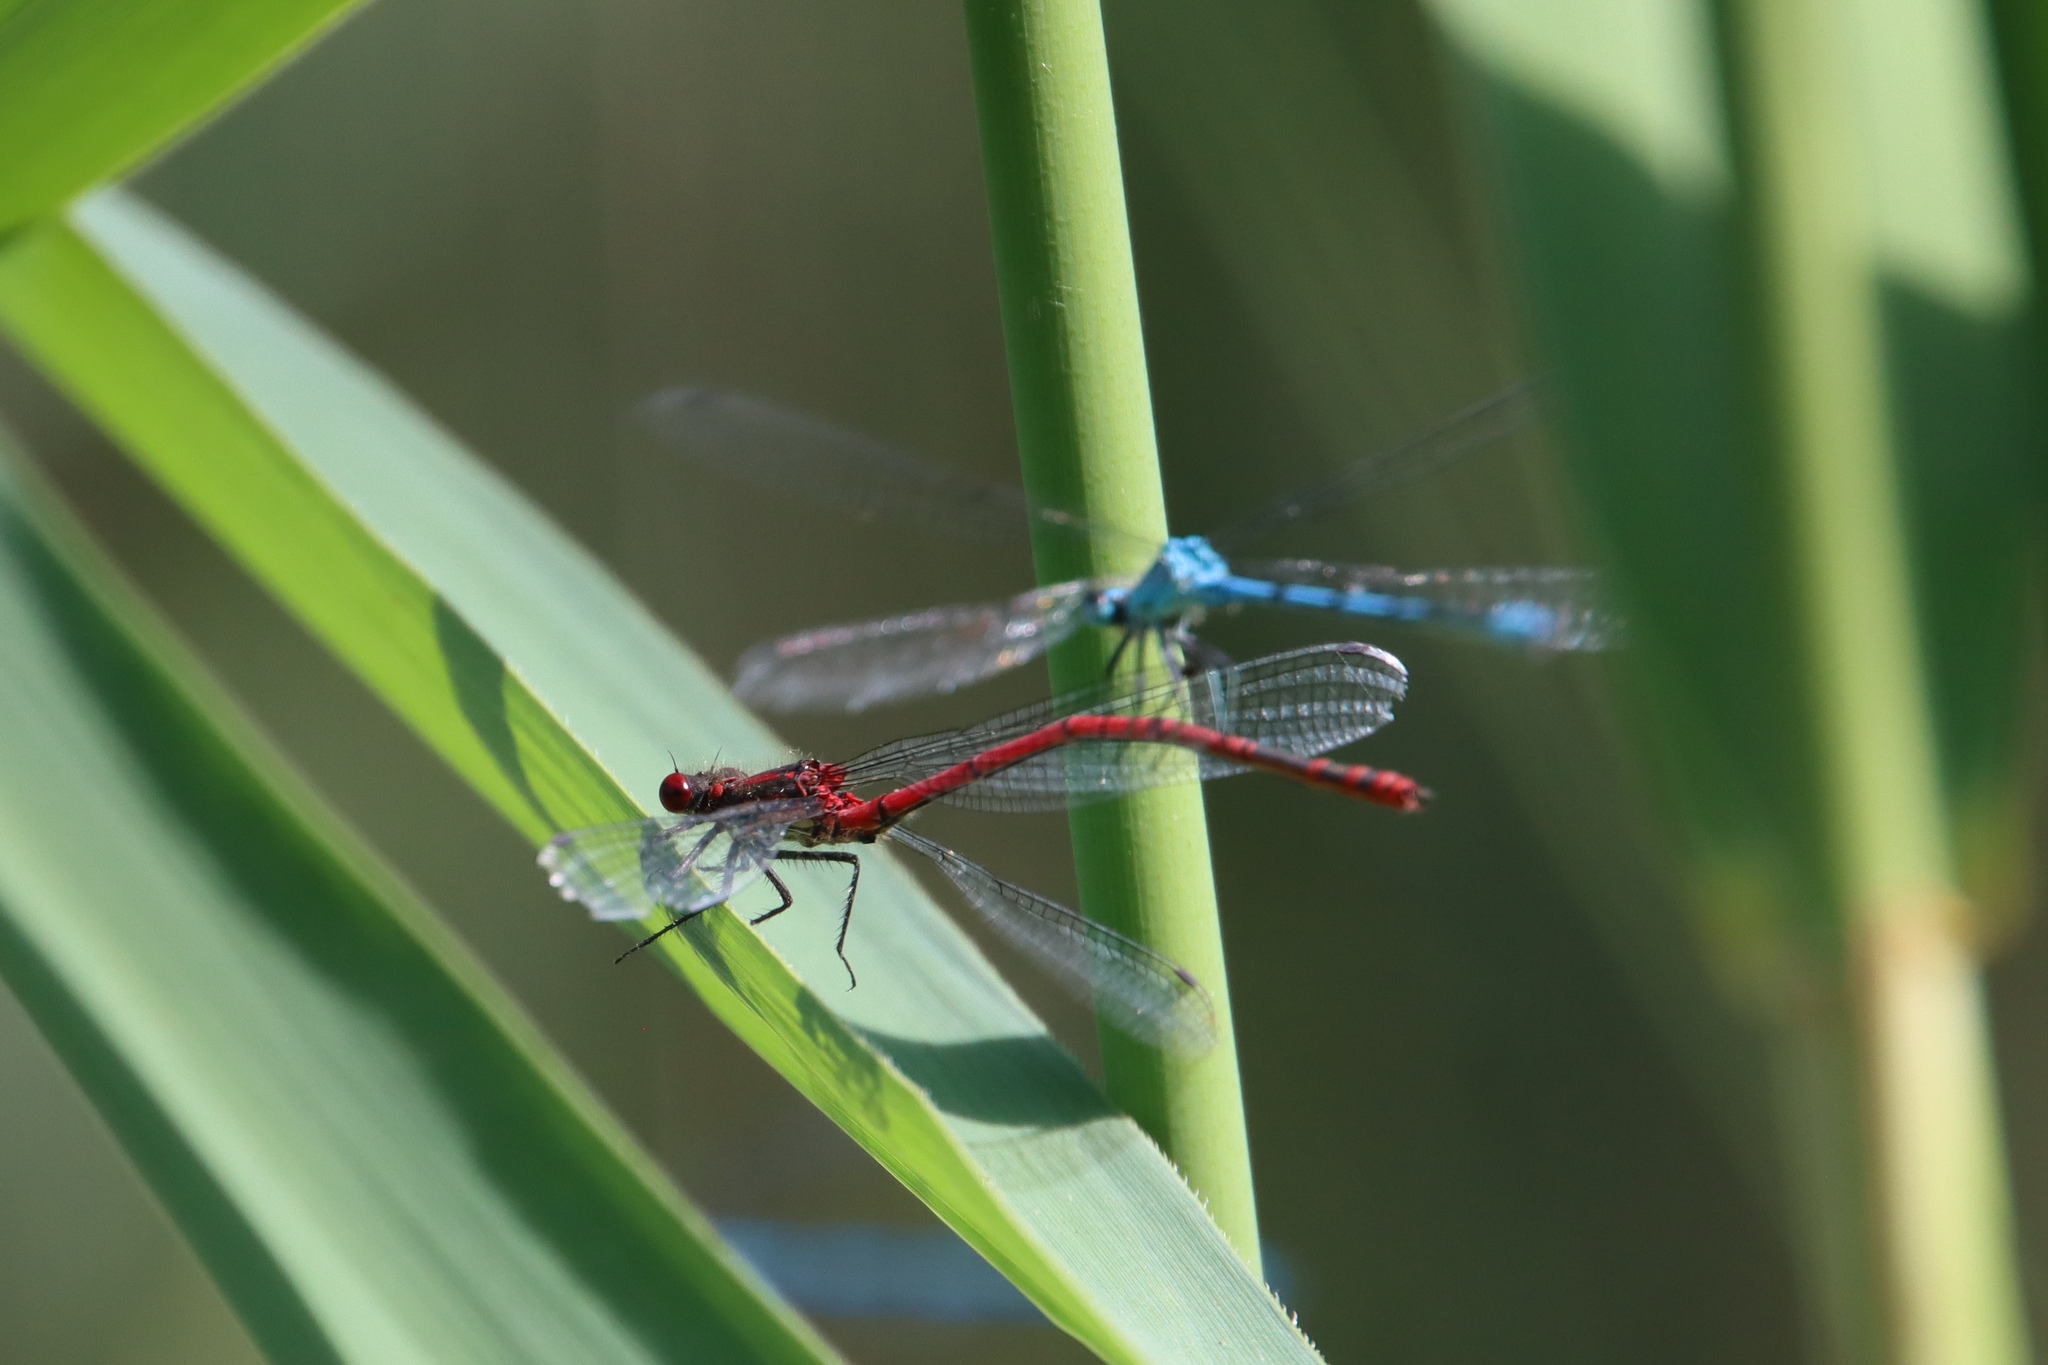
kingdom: Animalia
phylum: Arthropoda
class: Insecta
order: Odonata
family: Coenagrionidae
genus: Pyrrhosoma
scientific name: Pyrrhosoma nymphula
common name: Large red damsel
